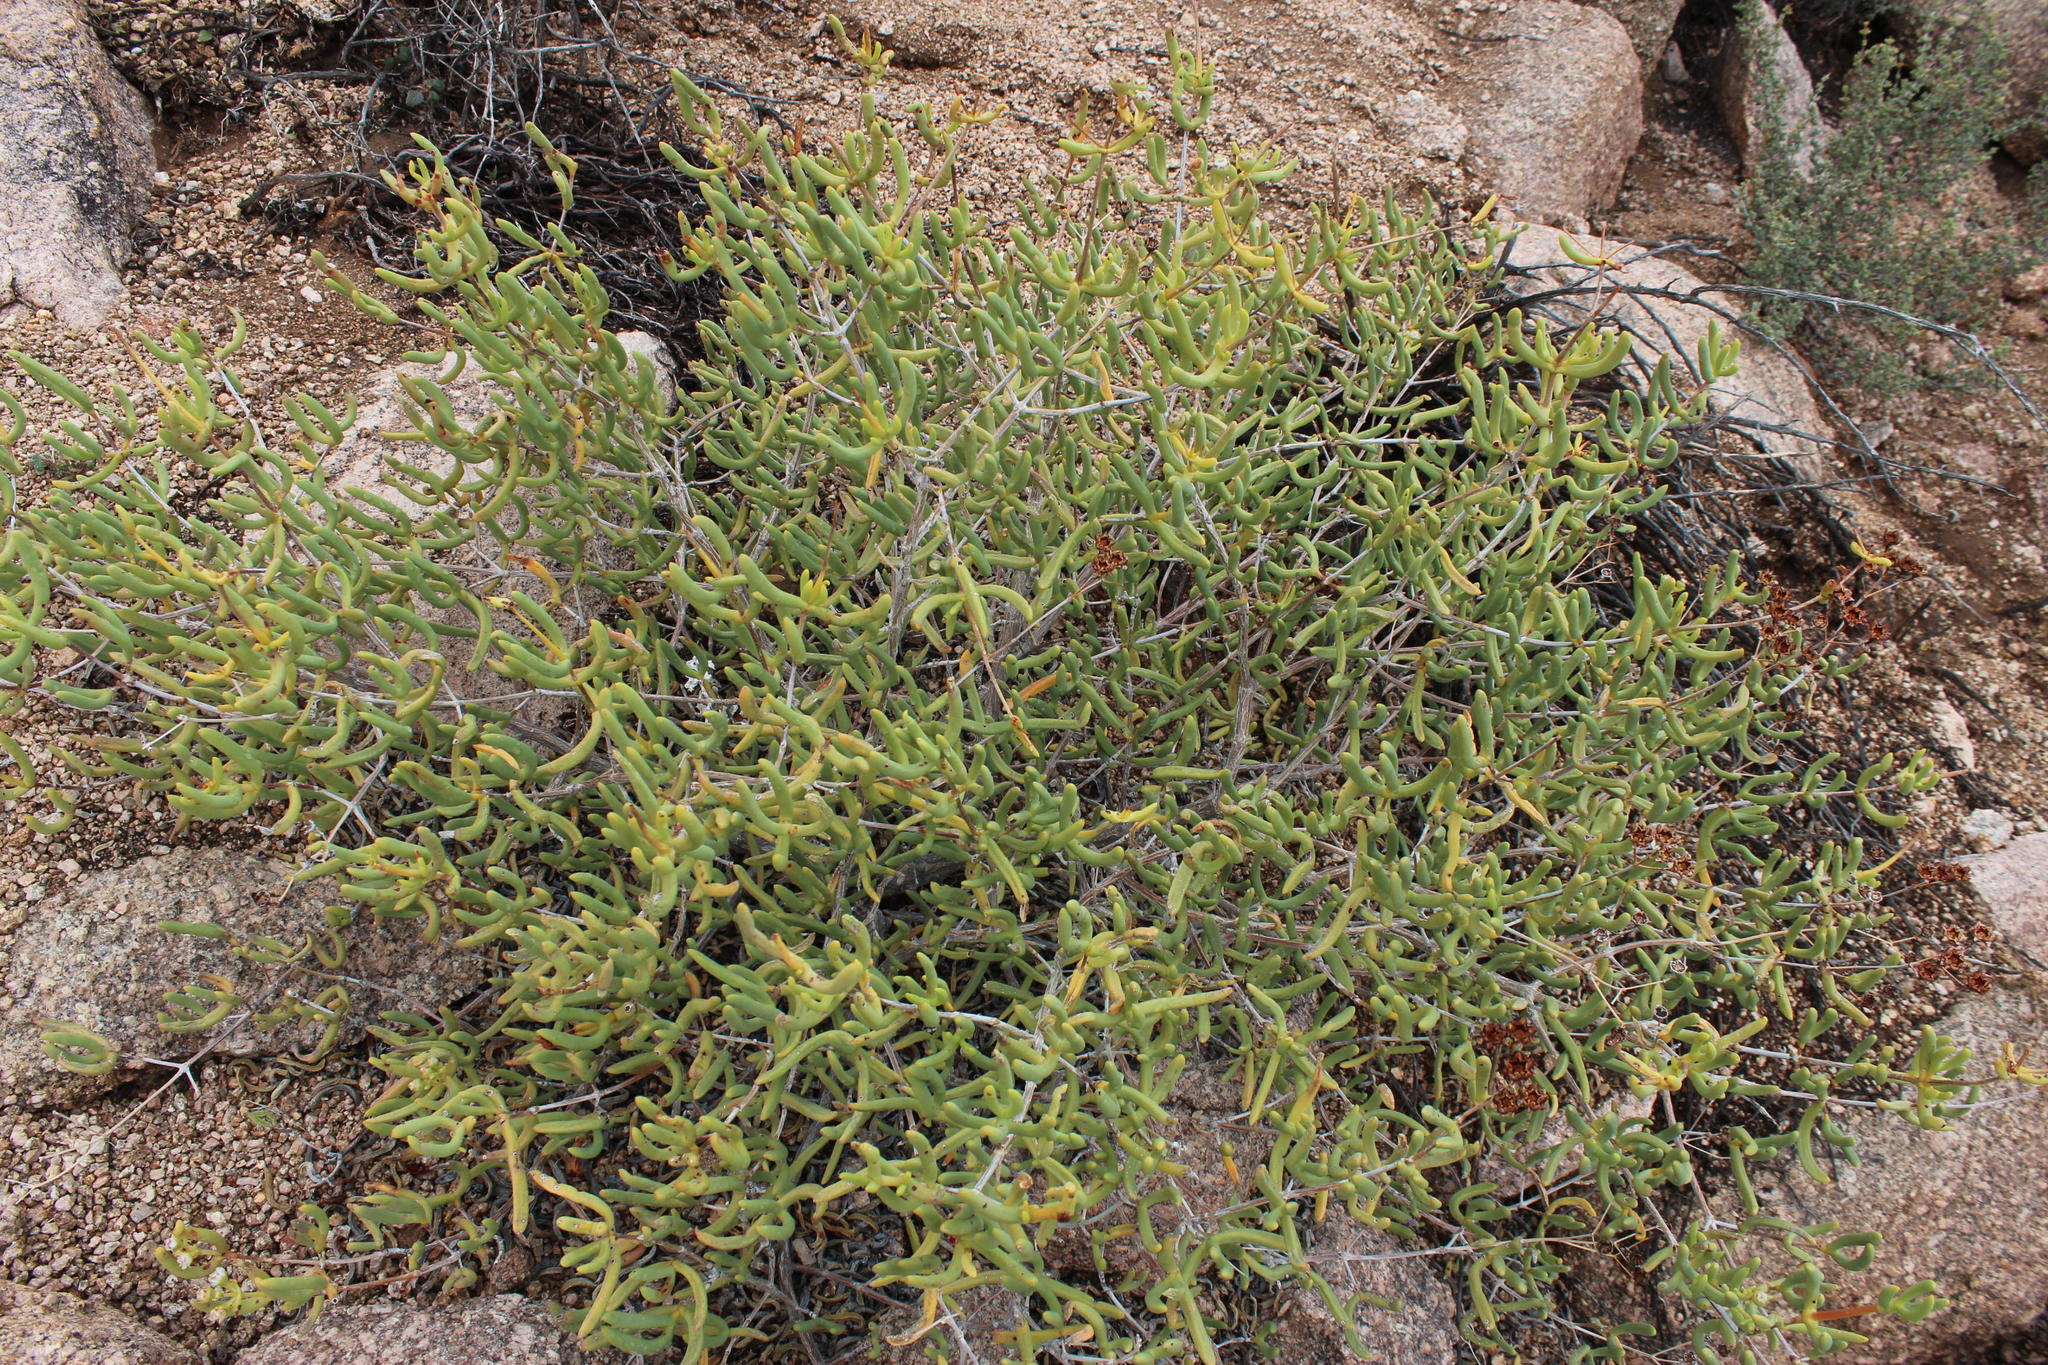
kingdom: Plantae
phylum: Tracheophyta
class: Magnoliopsida
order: Caryophyllales
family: Aizoaceae
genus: Ruschianthemum
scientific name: Ruschianthemum gigas
